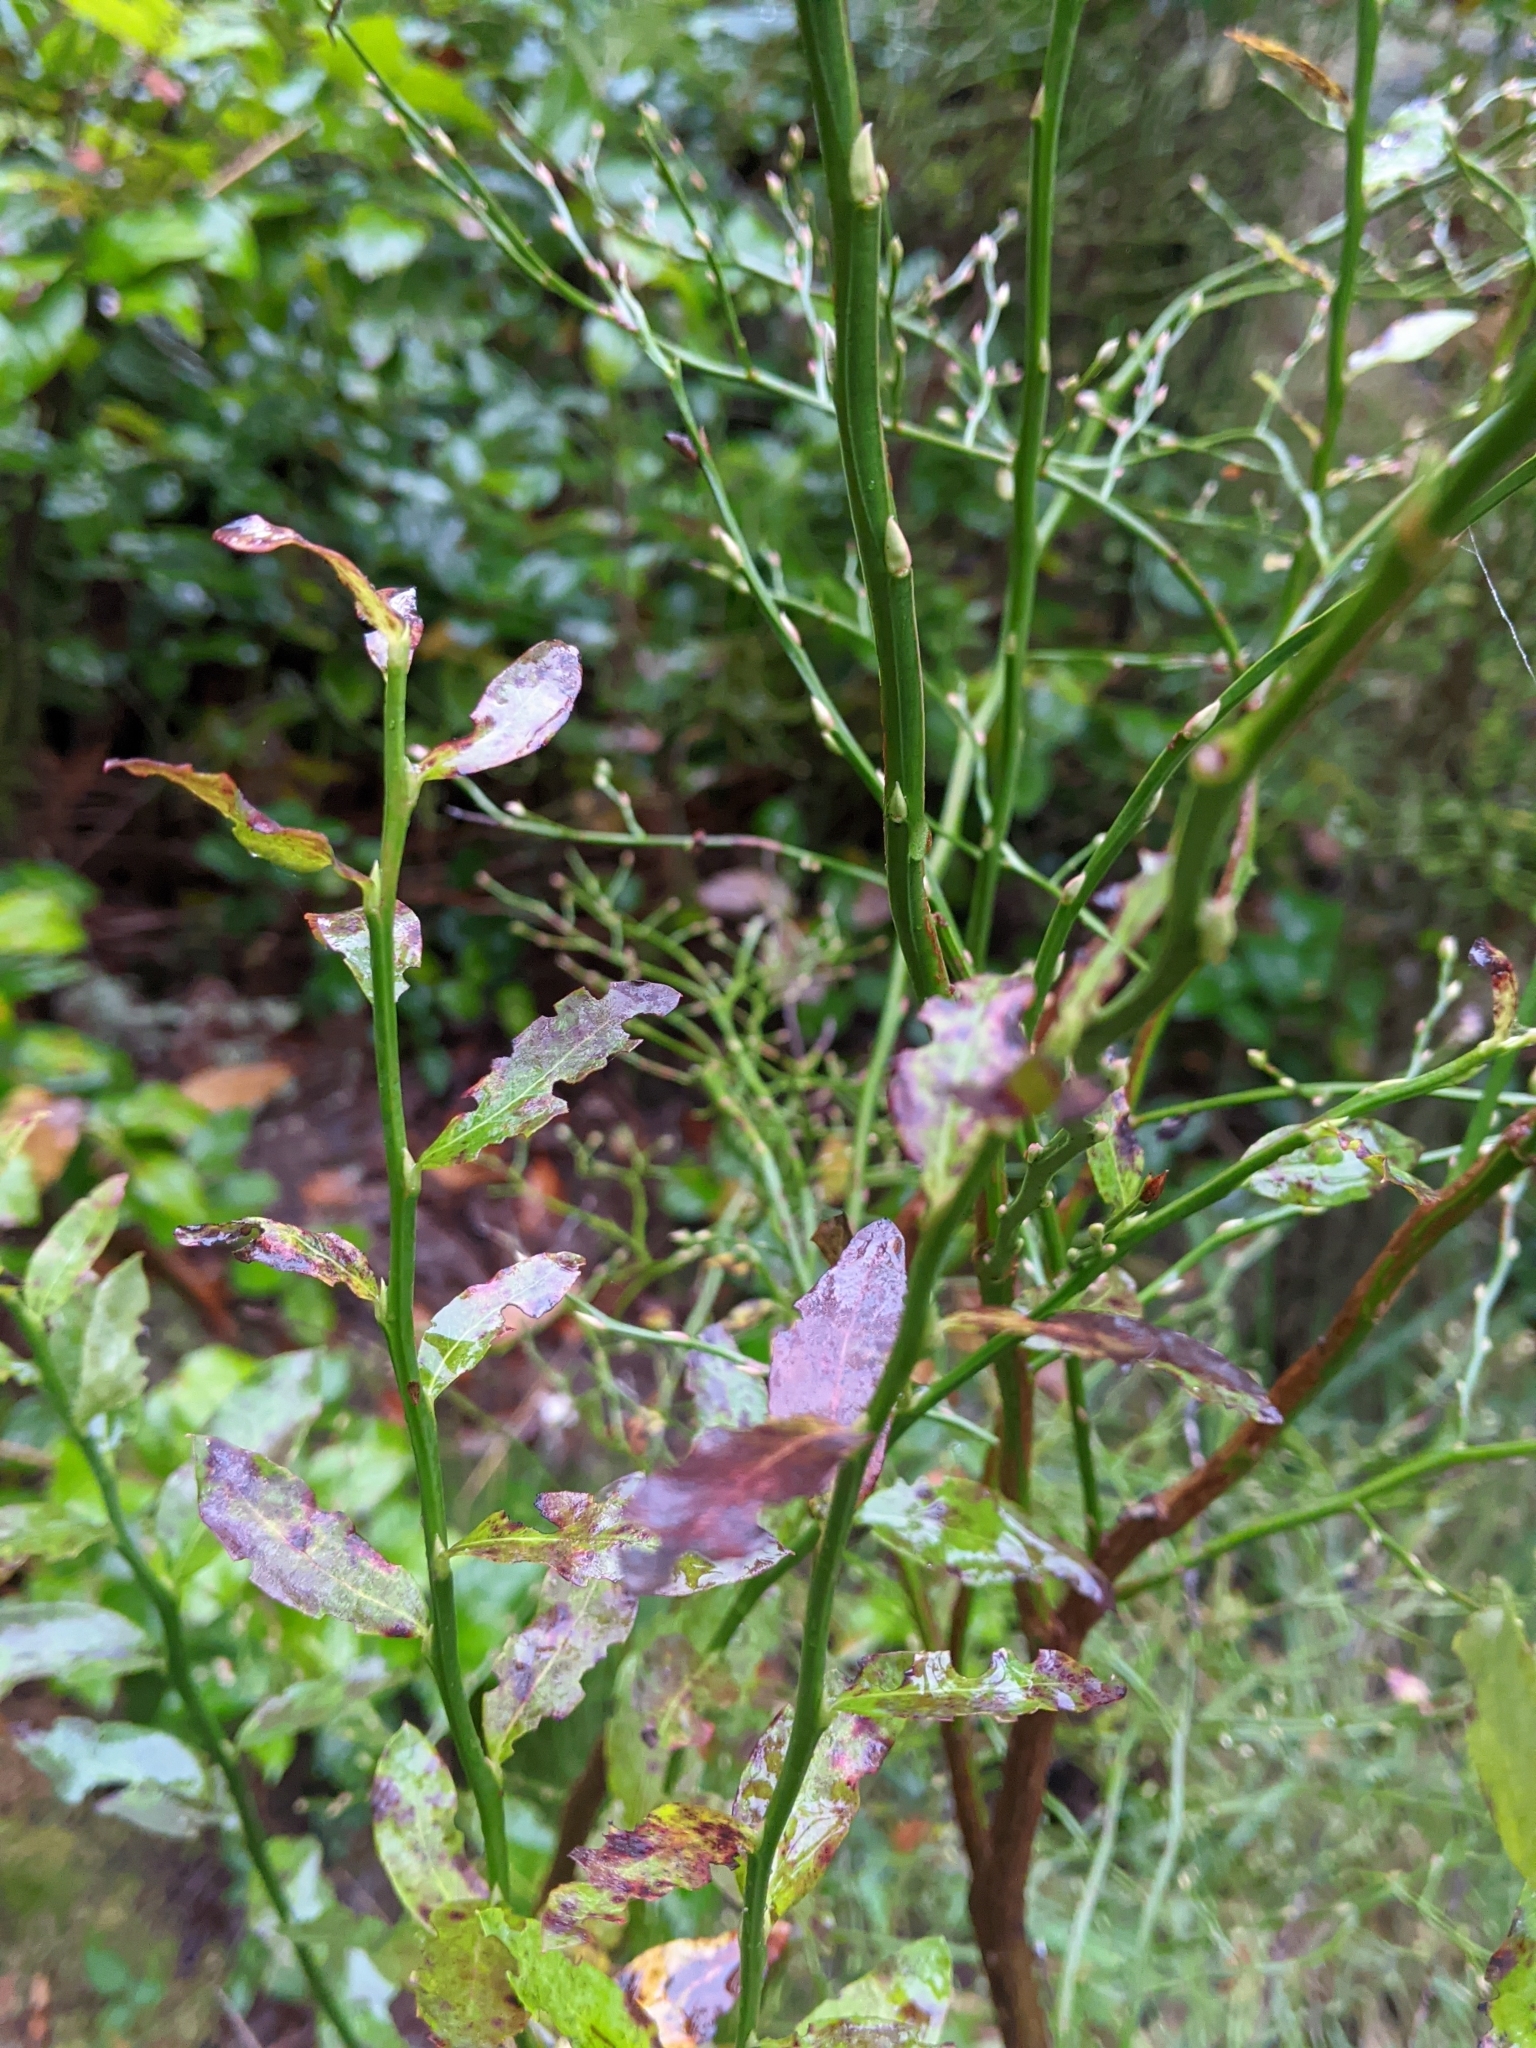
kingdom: Plantae
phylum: Tracheophyta
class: Magnoliopsida
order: Ericales
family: Ericaceae
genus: Vaccinium
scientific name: Vaccinium parvifolium
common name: Red-huckleberry
